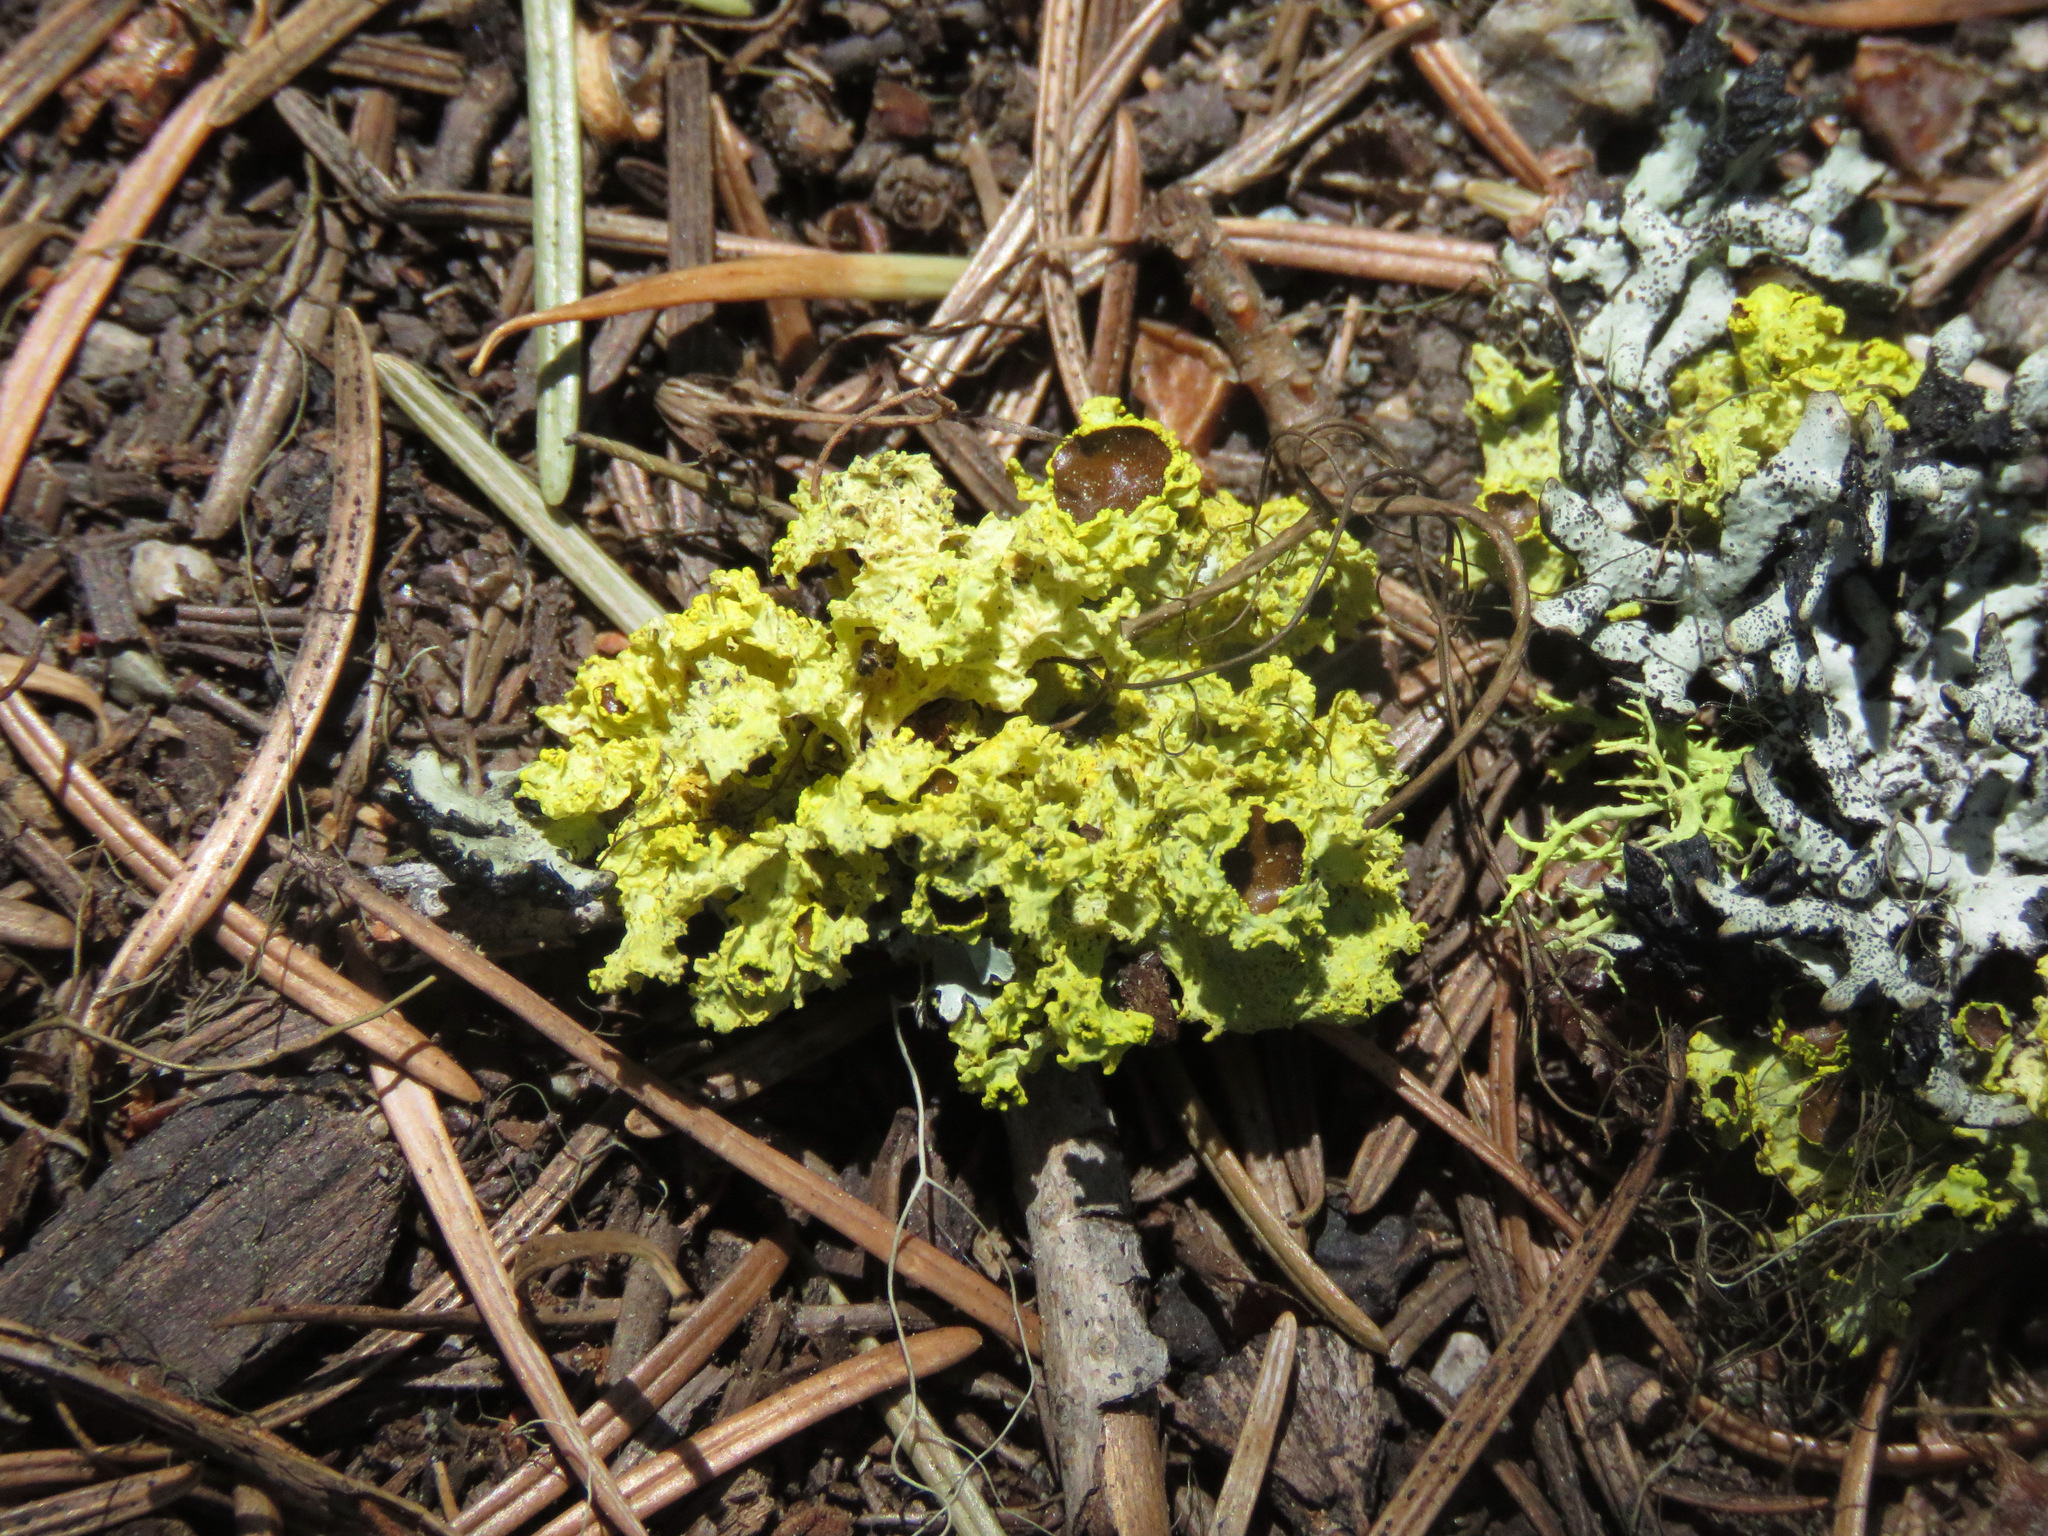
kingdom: Fungi
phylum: Ascomycota
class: Lecanoromycetes
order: Lecanorales
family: Parmeliaceae
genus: Vulpicida
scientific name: Vulpicida canadensis
